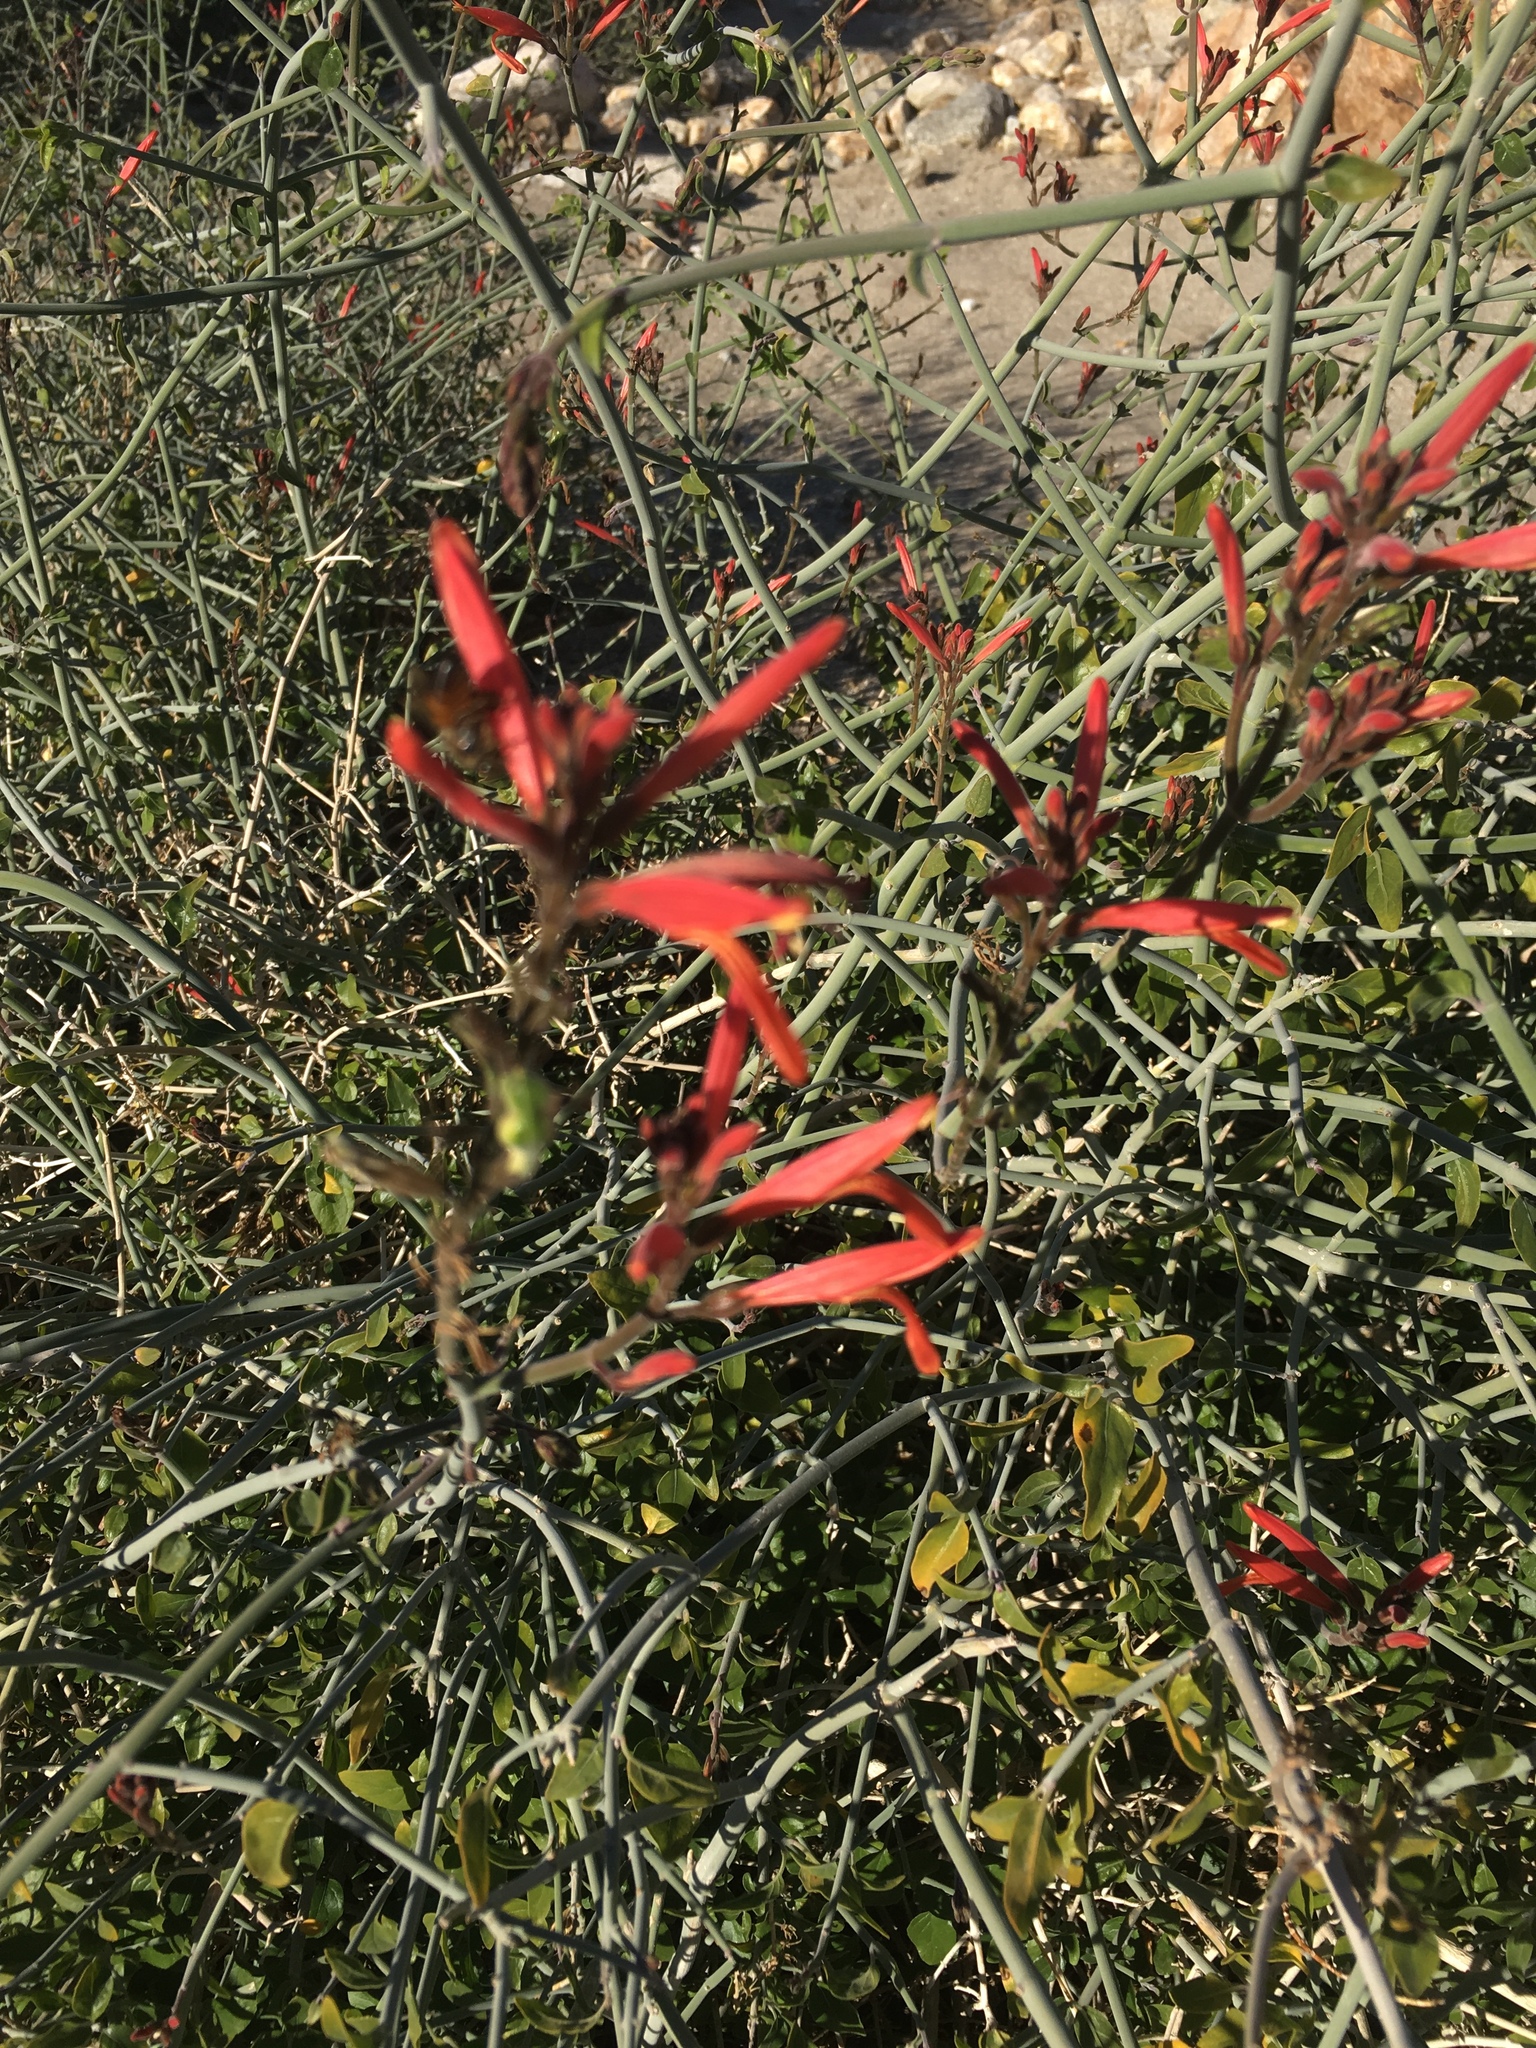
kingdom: Plantae
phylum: Tracheophyta
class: Magnoliopsida
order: Lamiales
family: Acanthaceae
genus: Justicia
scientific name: Justicia californica
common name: Chuparosa-honeysuckle
